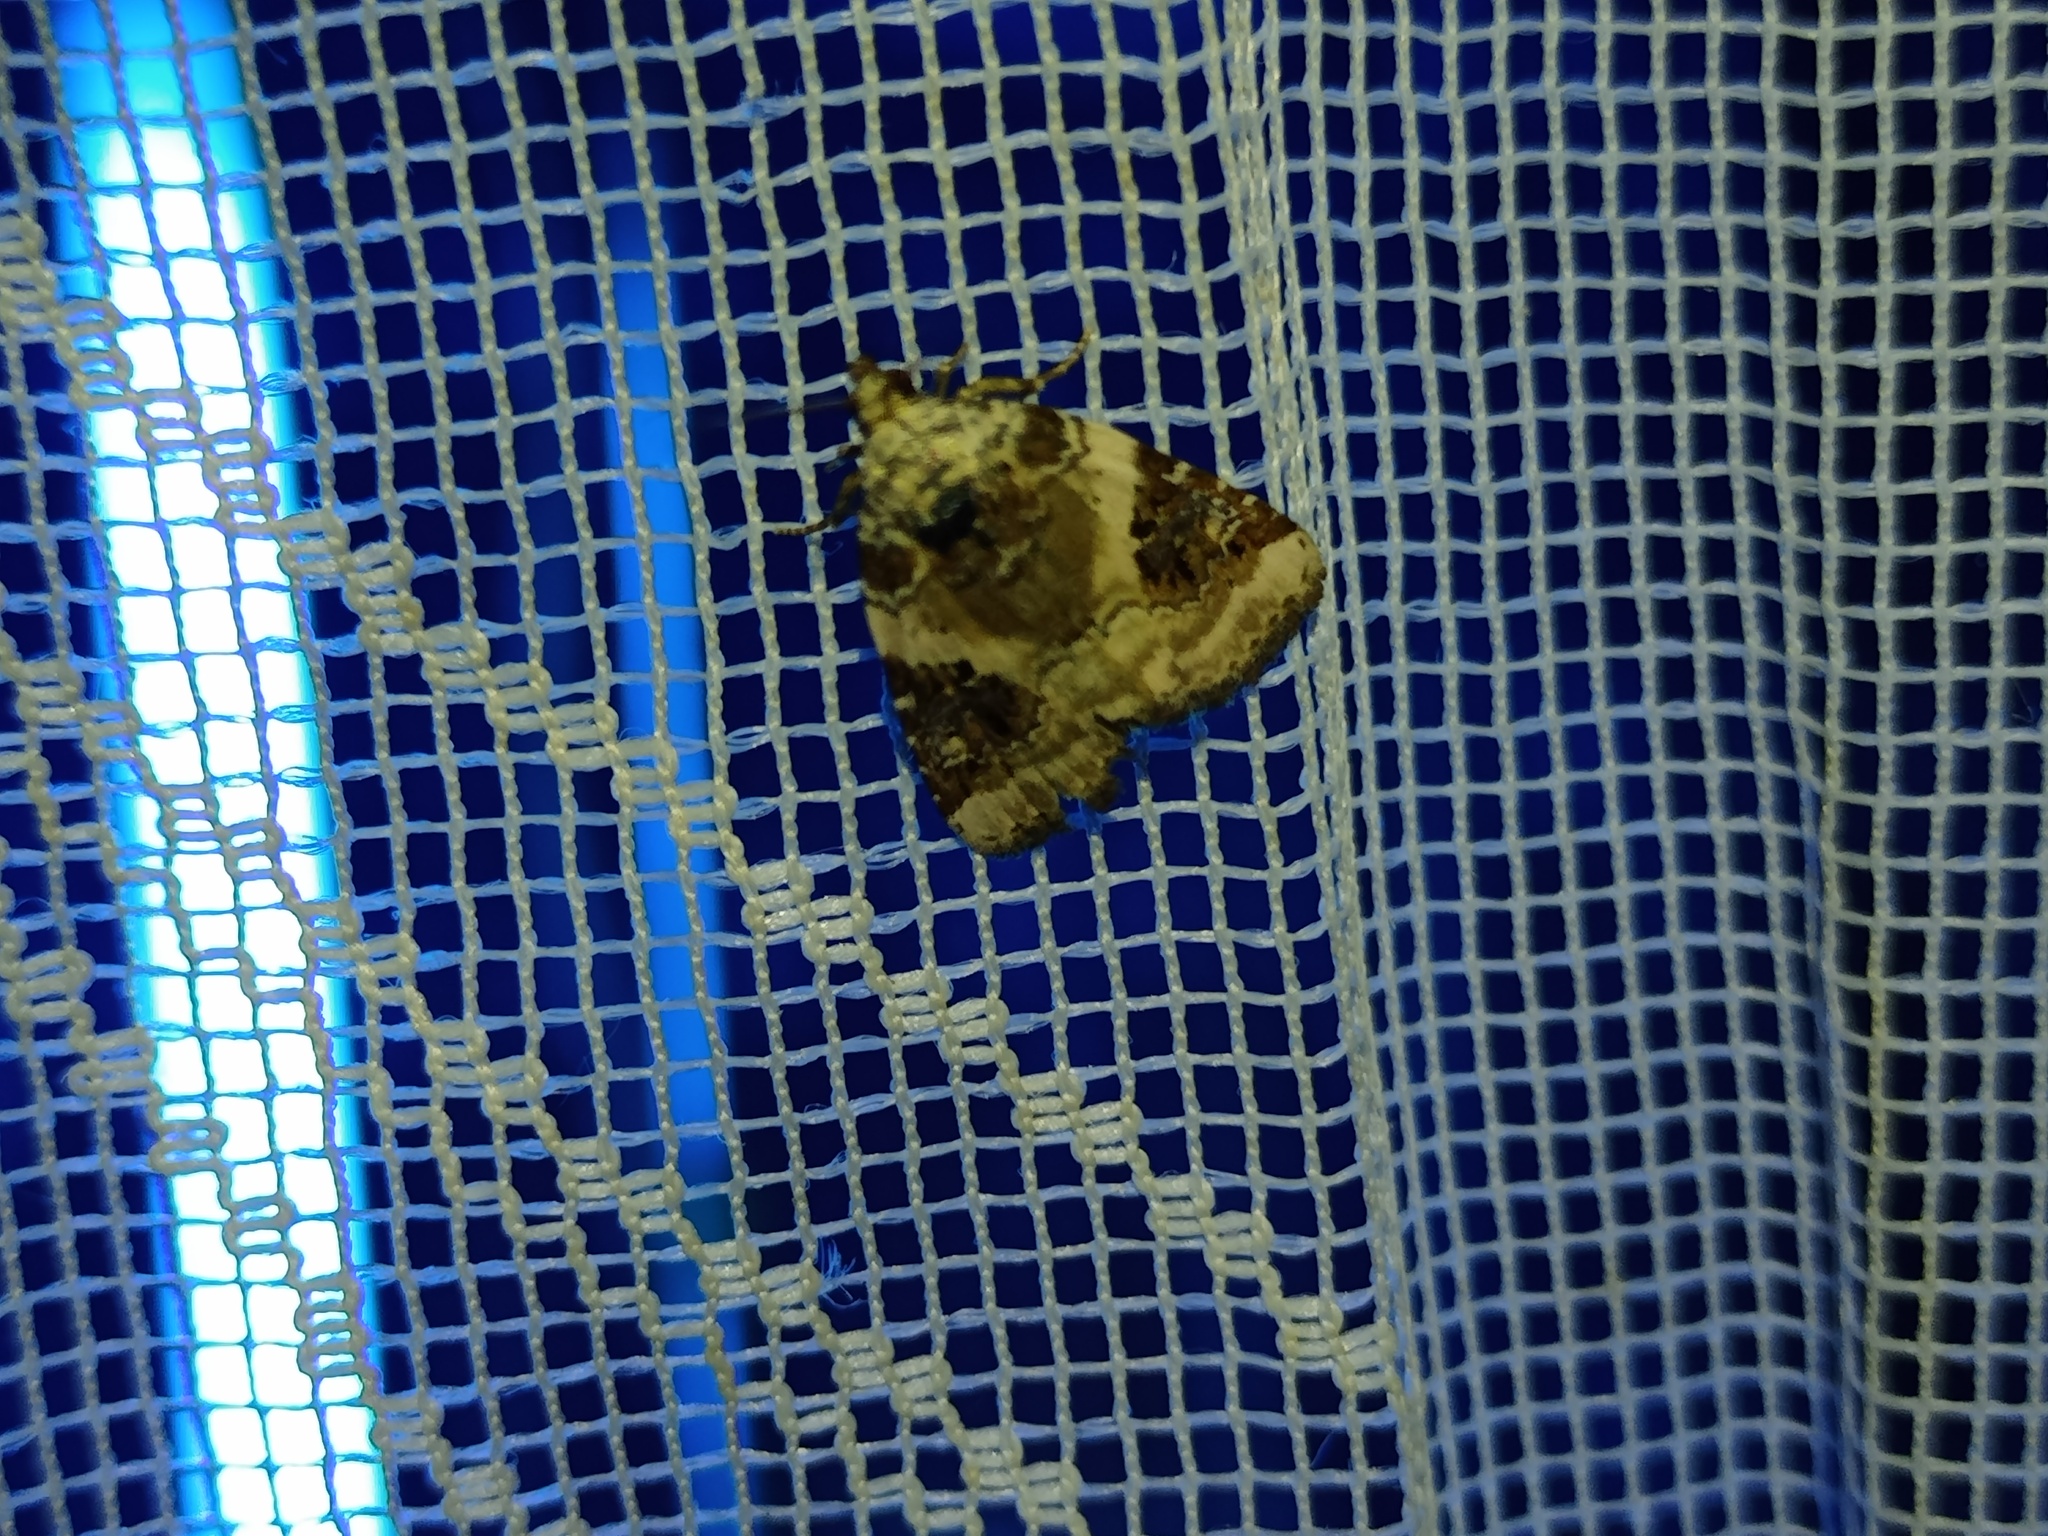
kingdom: Animalia
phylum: Arthropoda
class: Insecta
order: Lepidoptera
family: Noctuidae
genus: Pseudeustrotia
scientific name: Pseudeustrotia candidula
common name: Shining marbled
